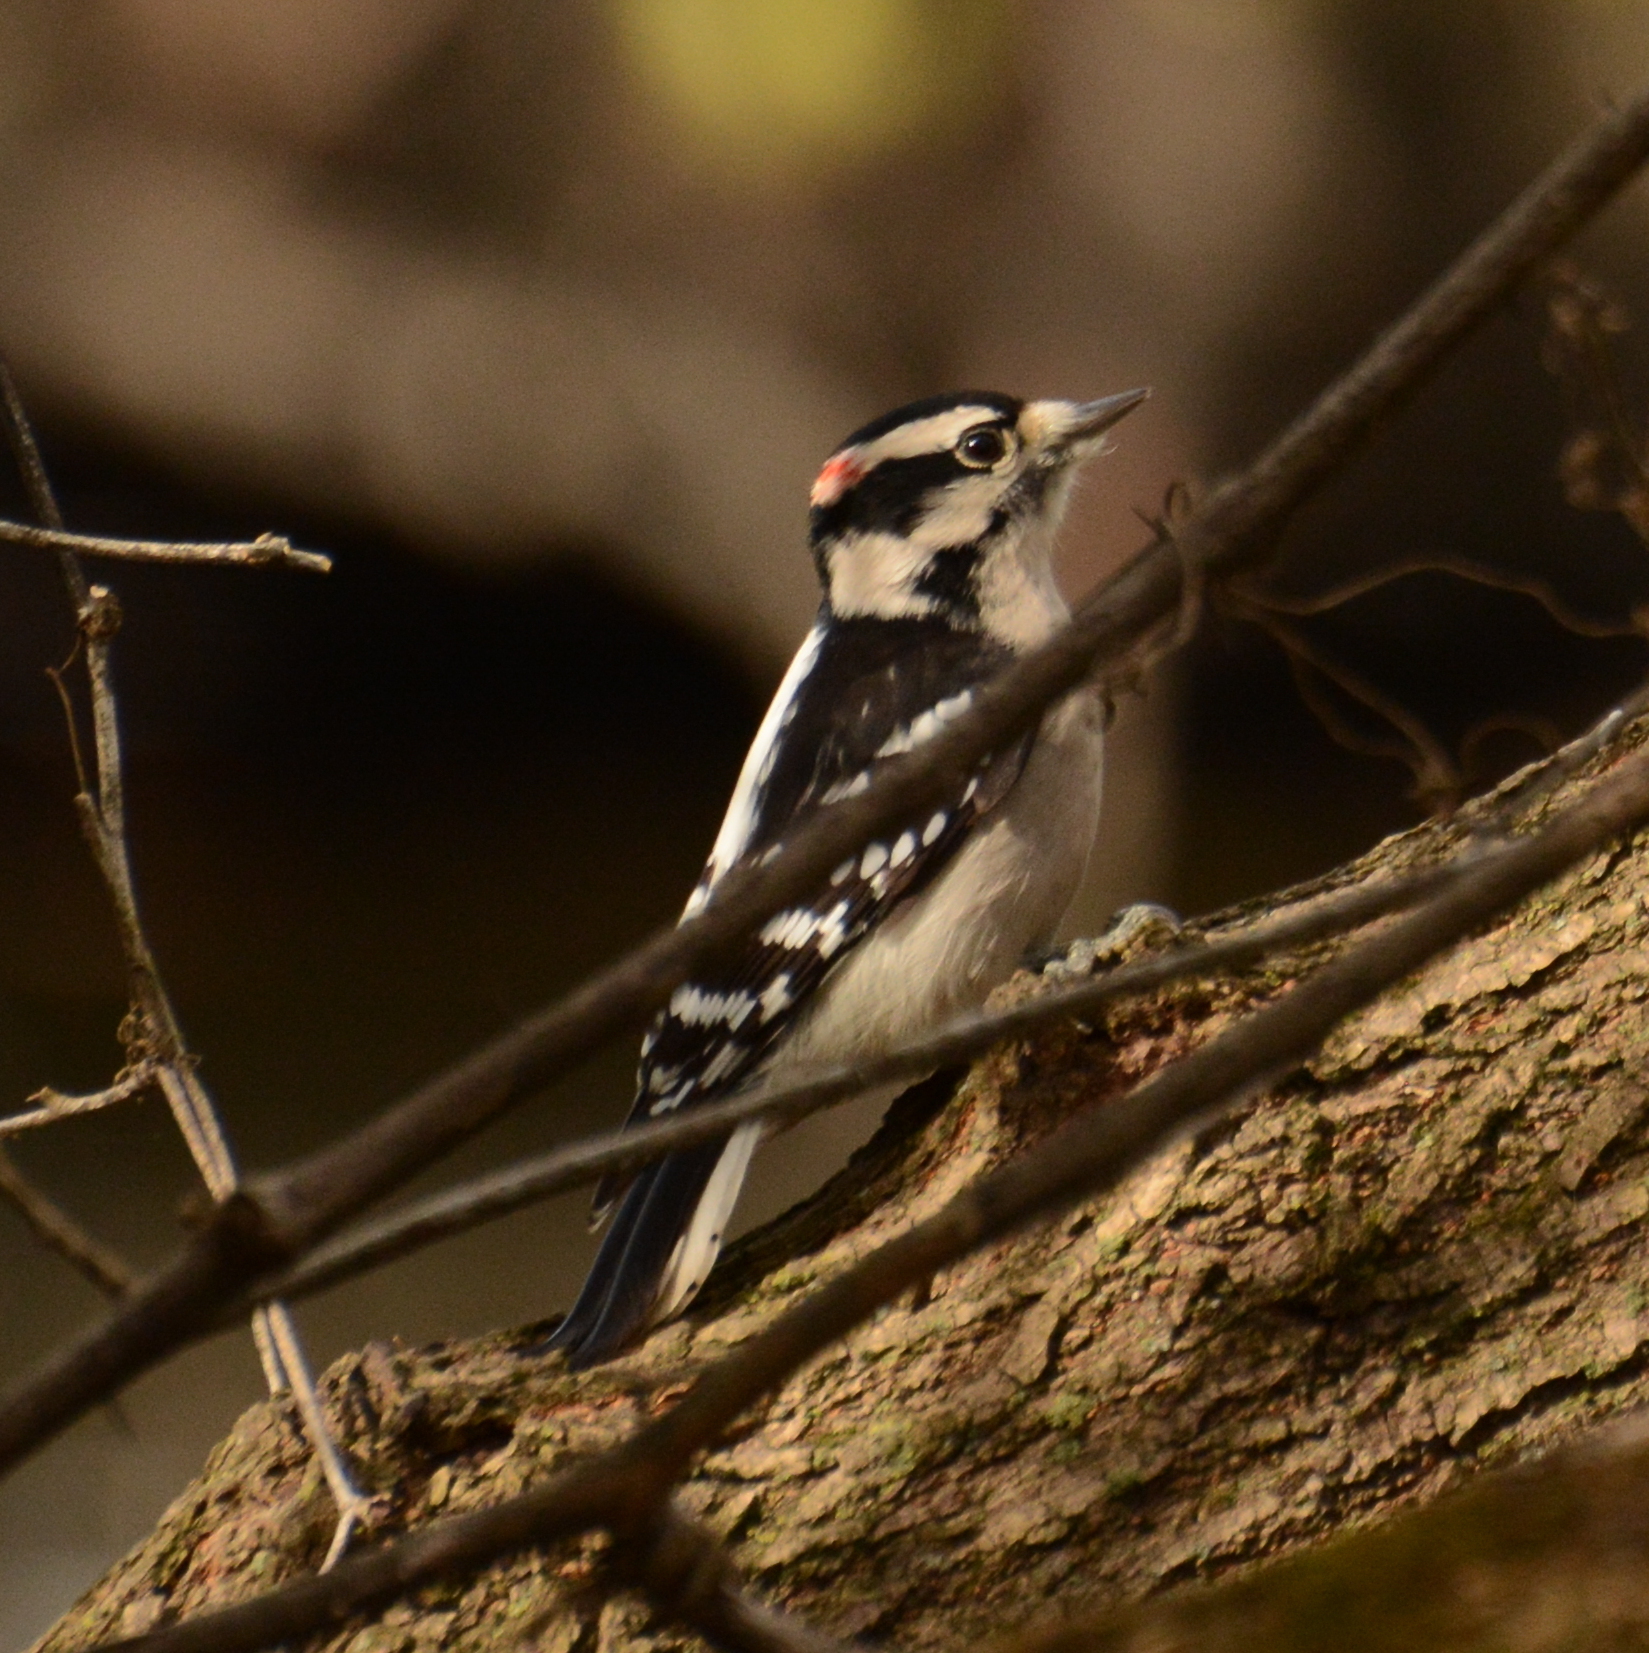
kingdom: Animalia
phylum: Chordata
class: Aves
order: Piciformes
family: Picidae
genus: Dryobates
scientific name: Dryobates pubescens
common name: Downy woodpecker
